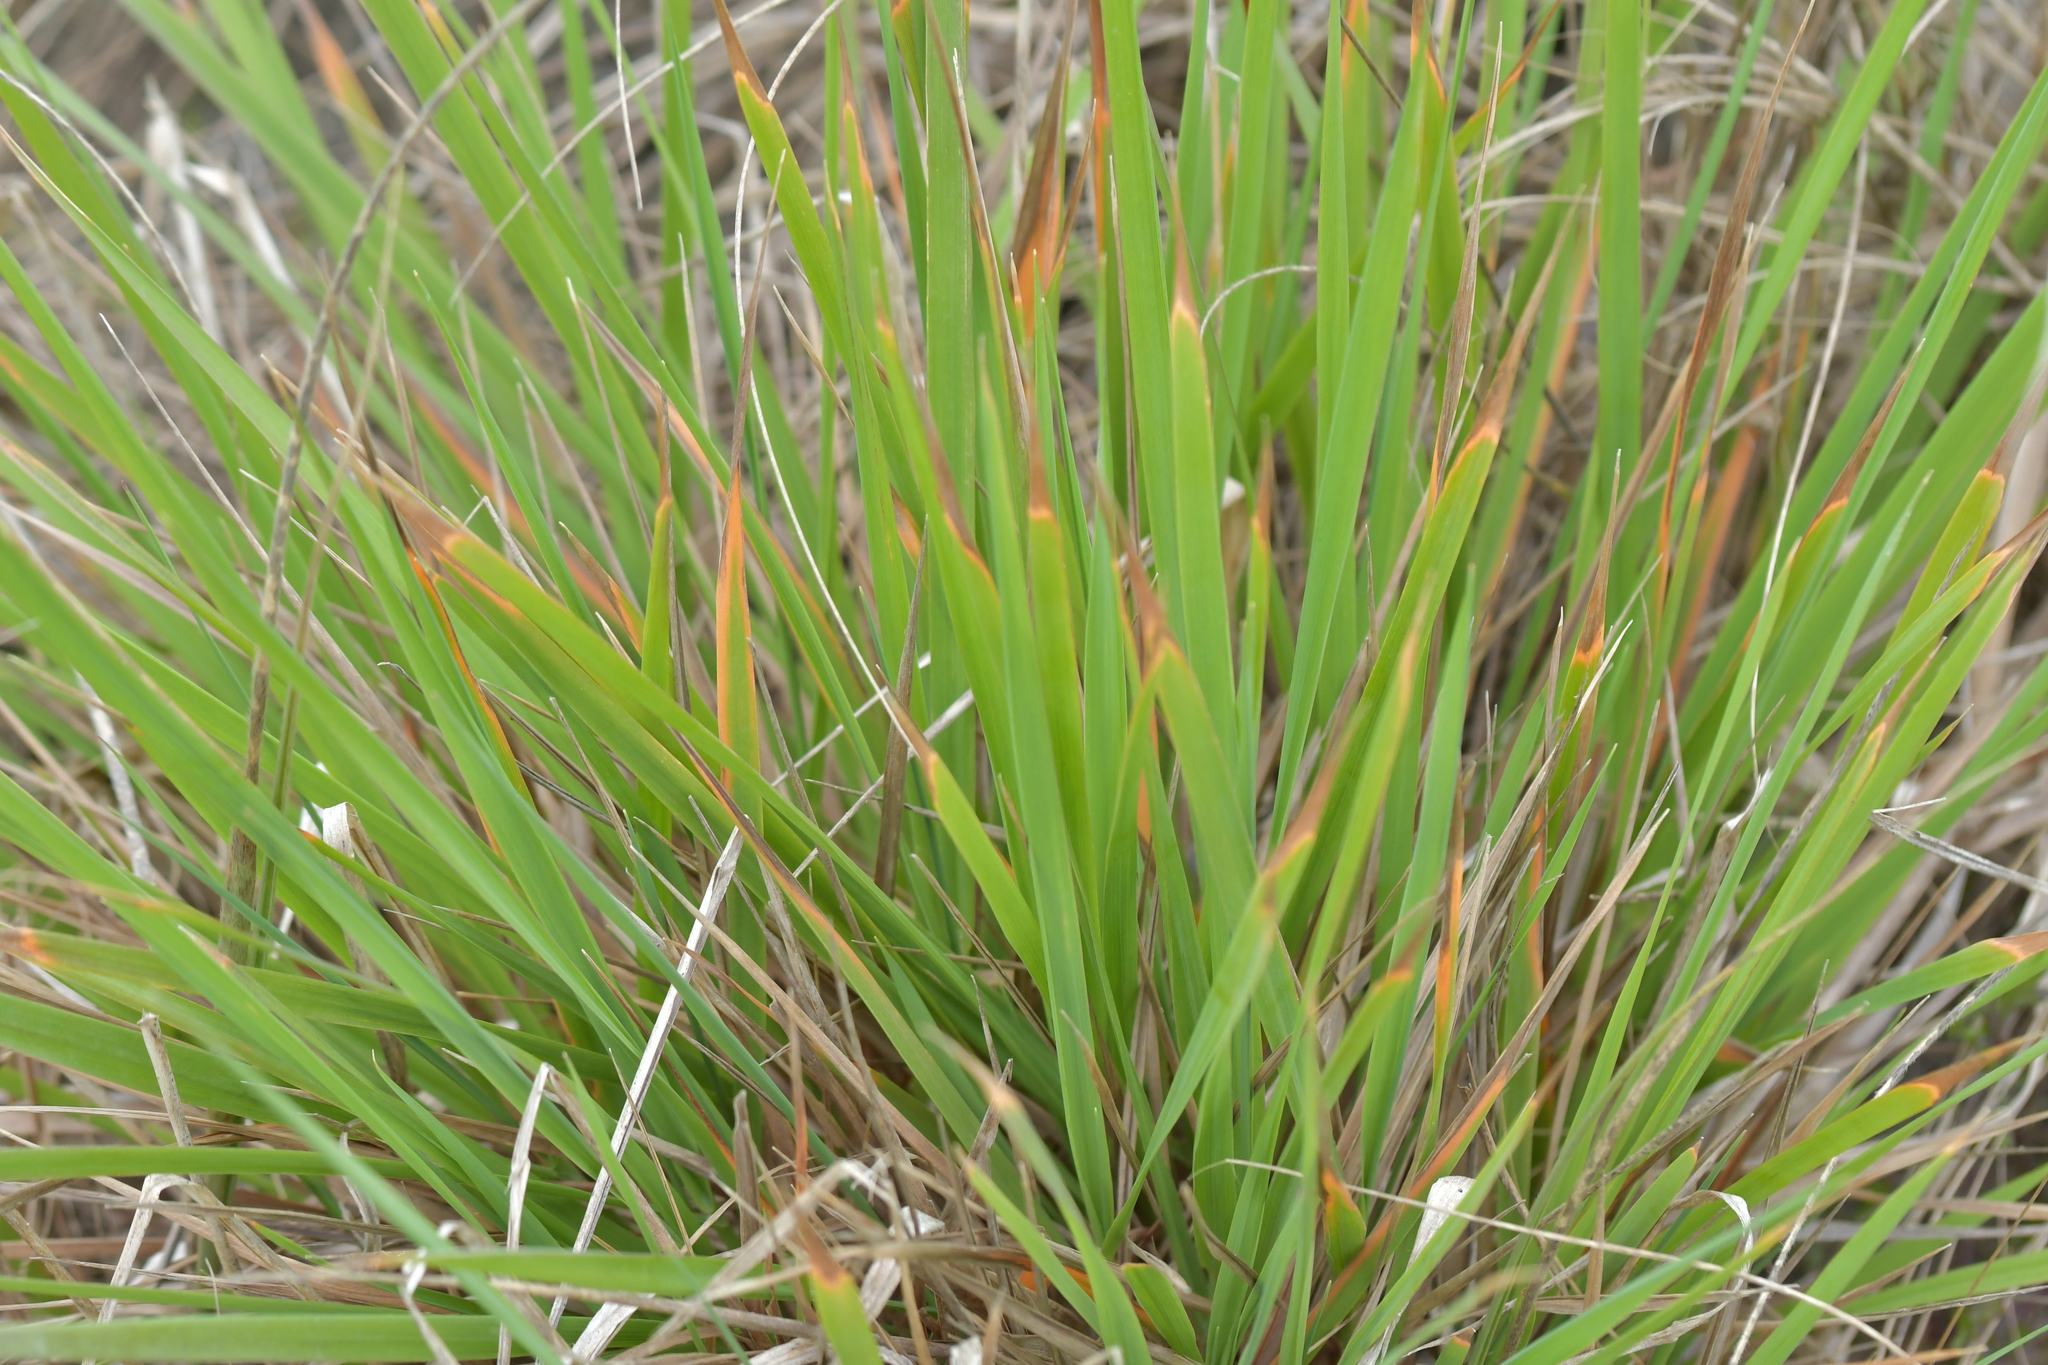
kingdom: Plantae
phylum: Tracheophyta
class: Liliopsida
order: Poales
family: Poaceae
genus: Lachnagrostis
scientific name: Lachnagrostis billardierei
